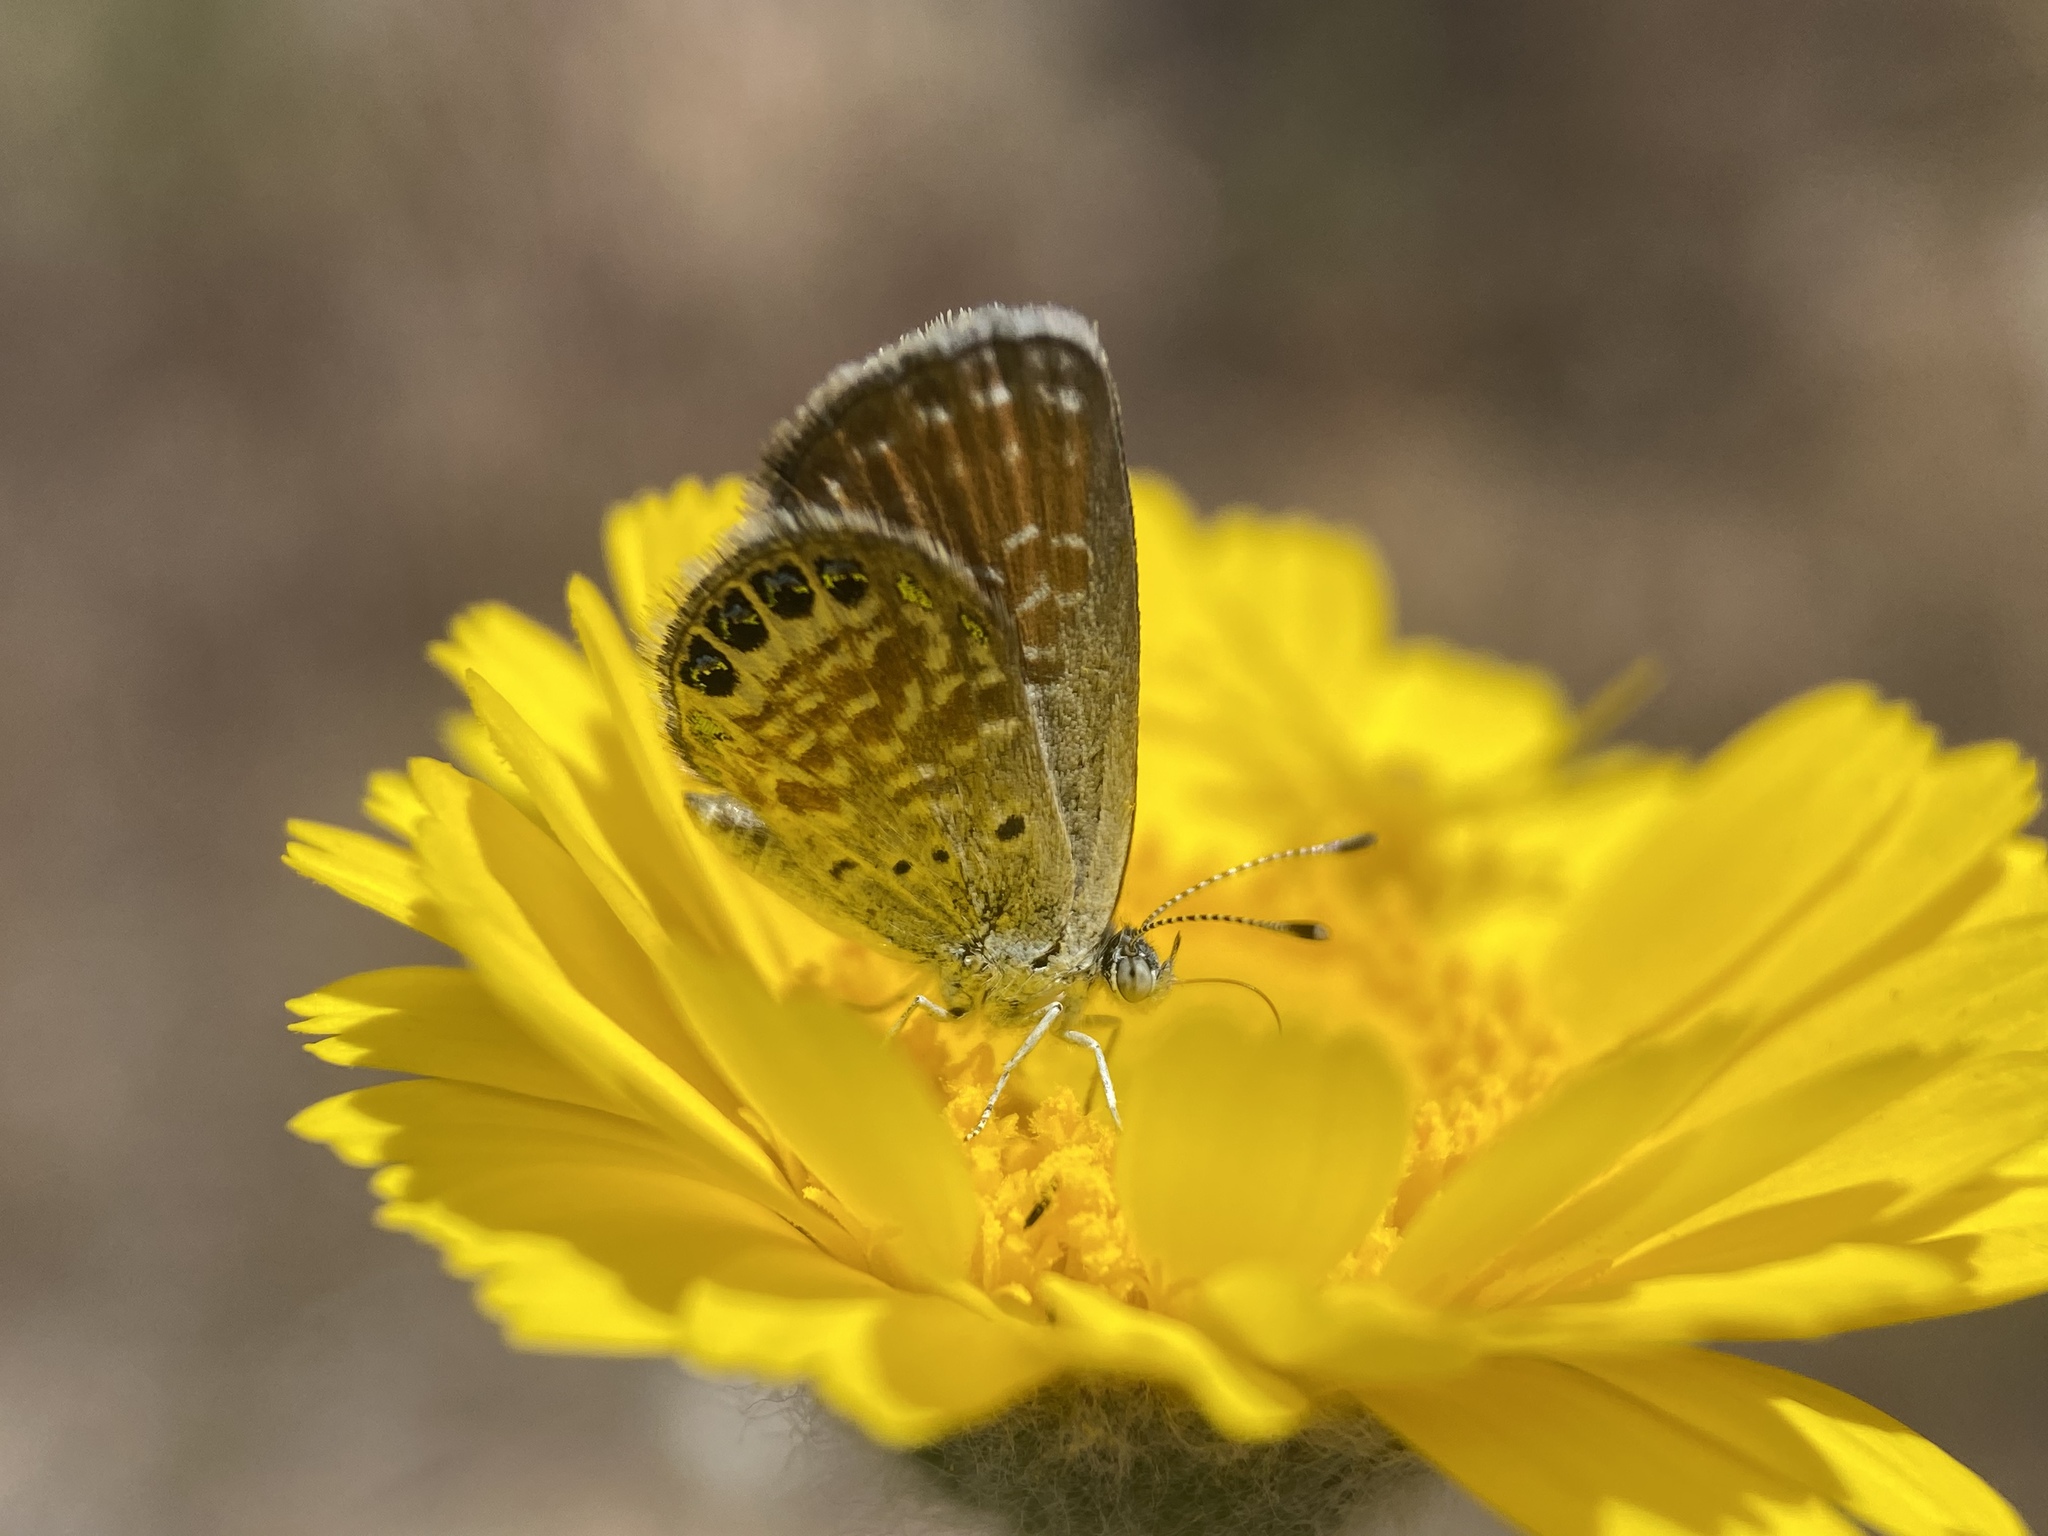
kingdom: Animalia
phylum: Arthropoda
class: Insecta
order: Lepidoptera
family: Lycaenidae
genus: Brephidium
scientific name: Brephidium exilis
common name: Pygmy blue
